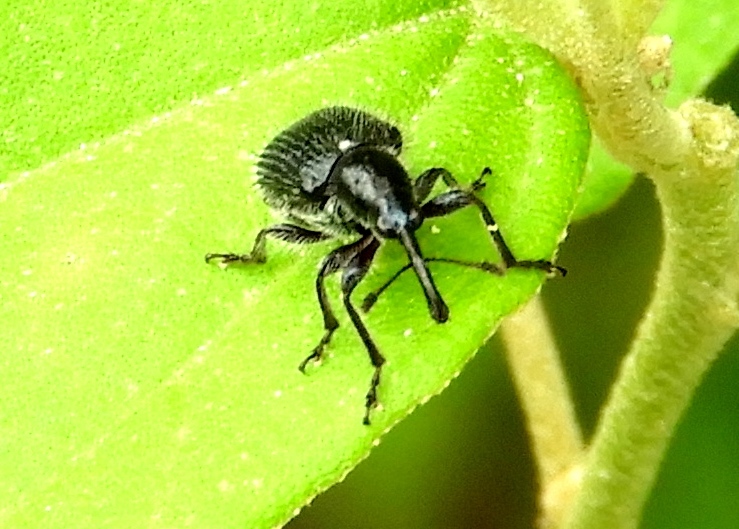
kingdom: Animalia
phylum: Arthropoda
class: Insecta
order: Coleoptera
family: Attelabidae
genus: Haplorhynchites
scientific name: Haplorhynchites
